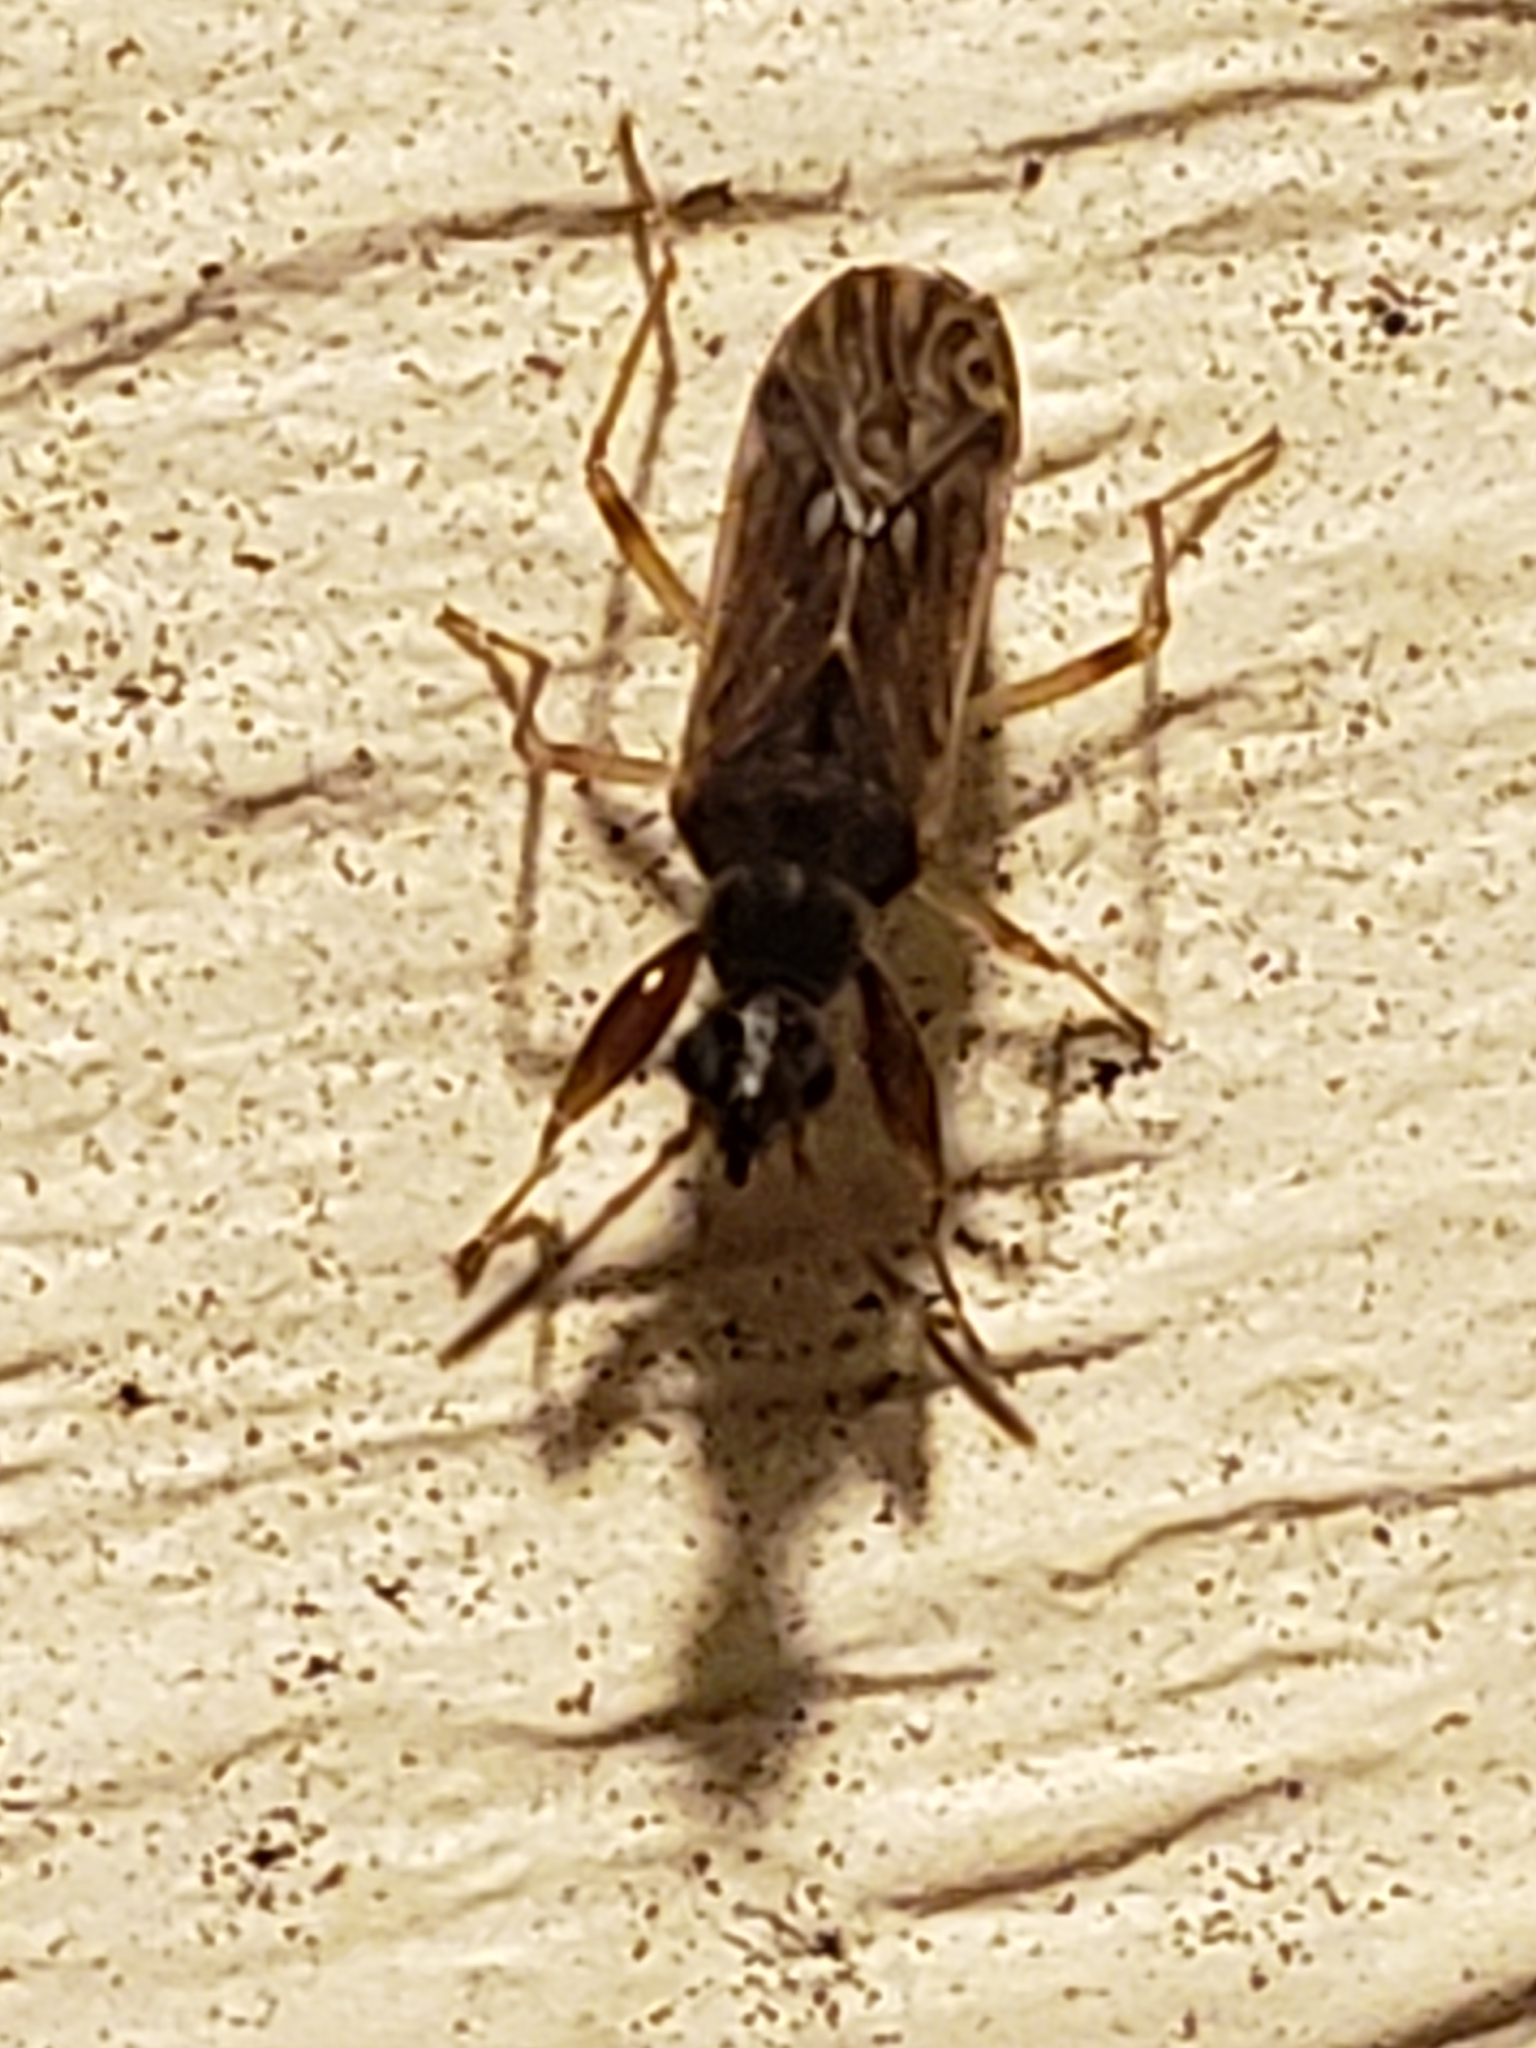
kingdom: Animalia
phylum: Arthropoda
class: Insecta
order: Hemiptera
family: Rhyparochromidae
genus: Heraeus
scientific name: Heraeus plebejus
